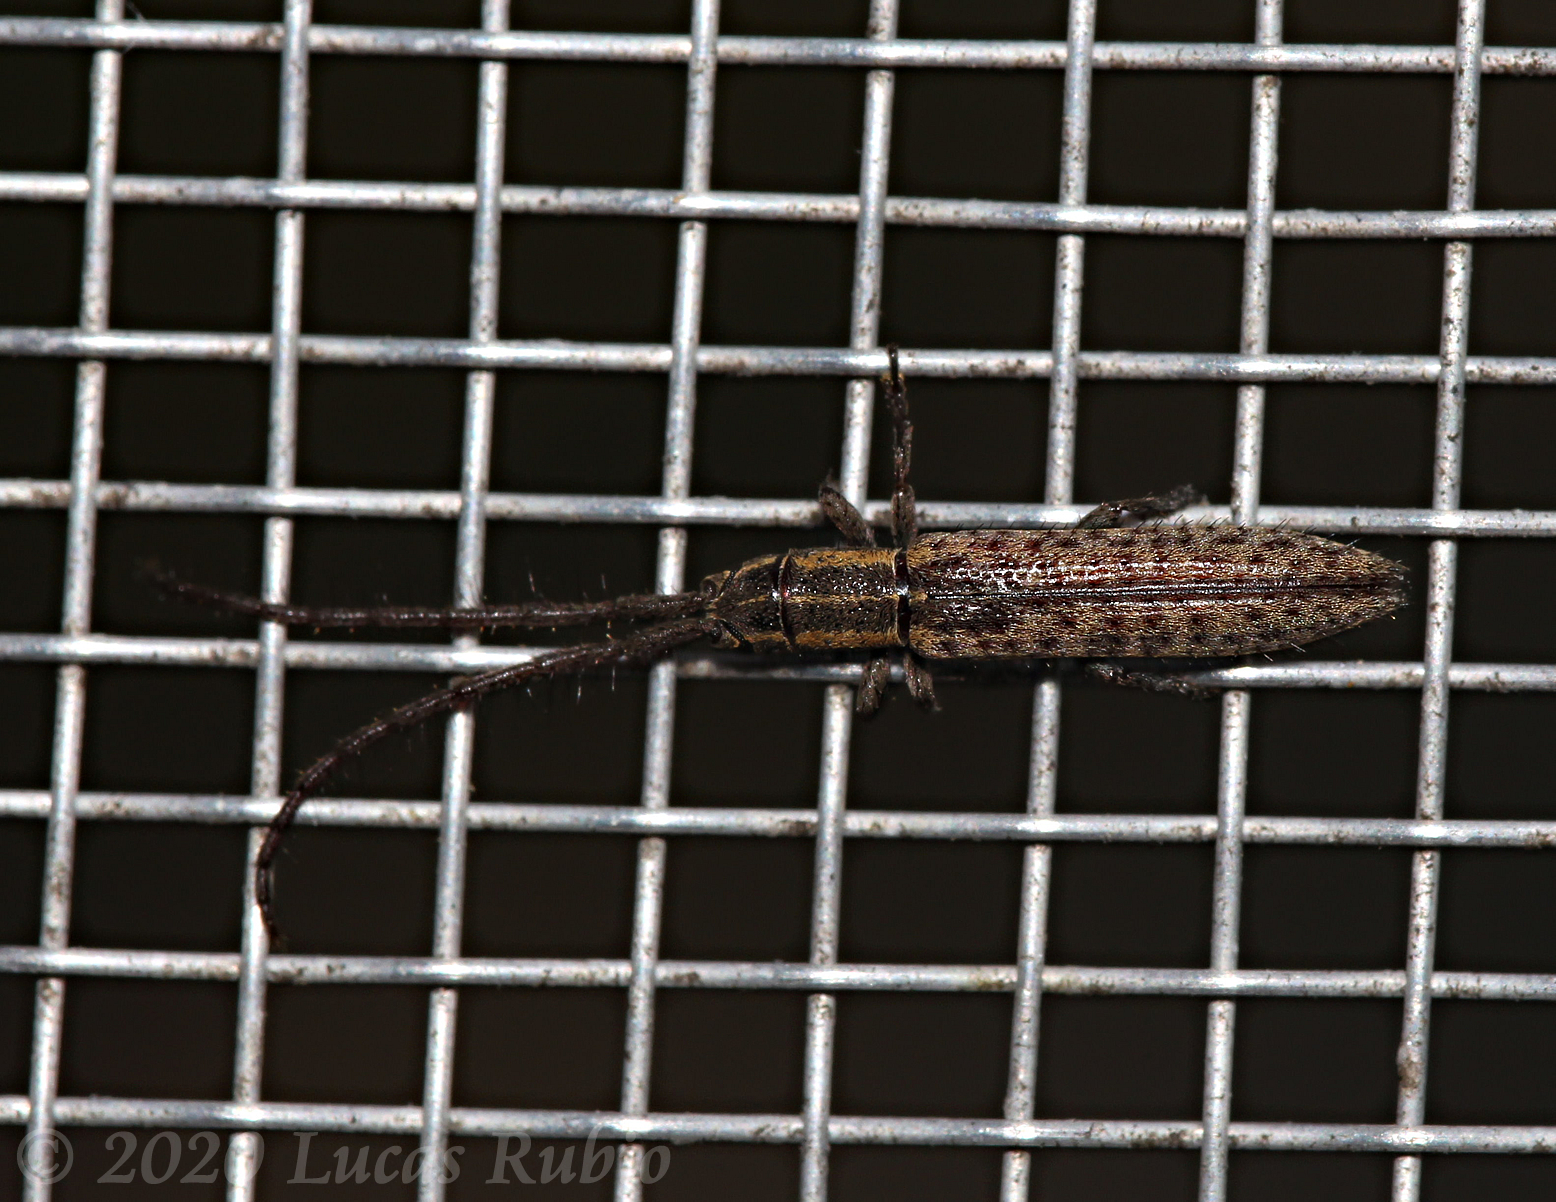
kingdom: Animalia
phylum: Arthropoda
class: Insecta
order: Coleoptera
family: Cerambycidae
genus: Dorcasta
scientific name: Dorcasta implicata
